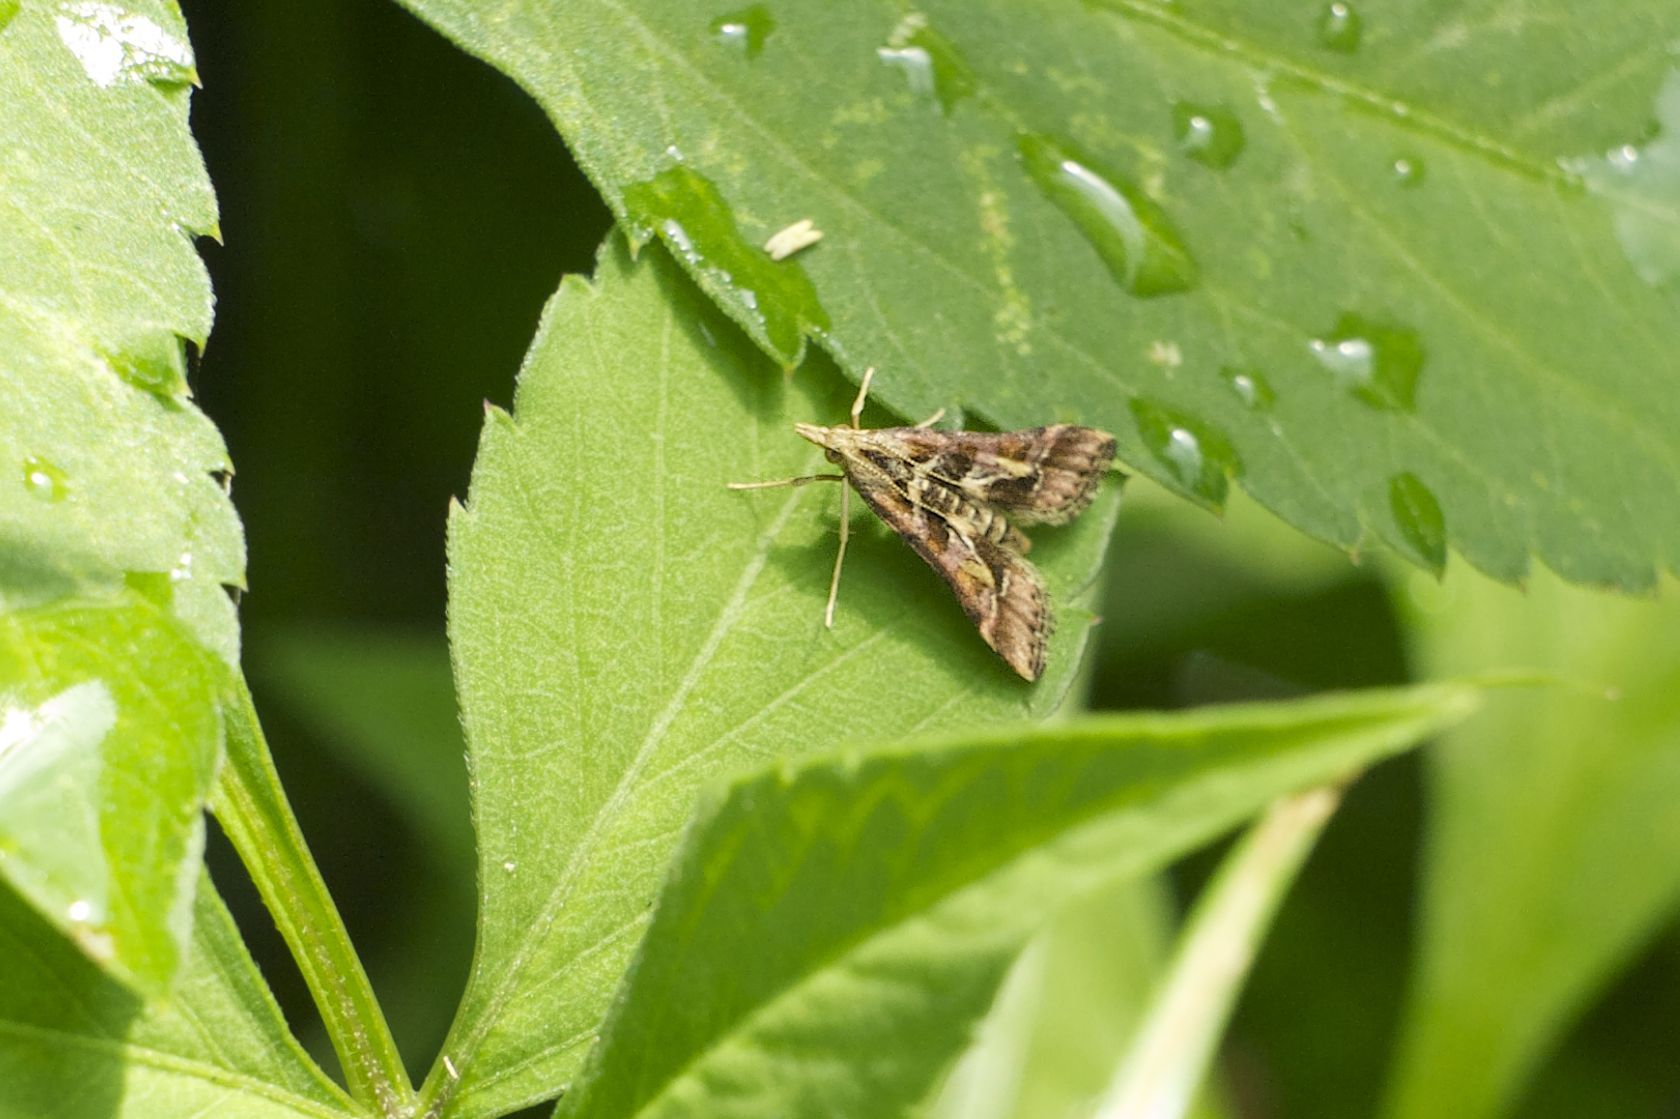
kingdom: Animalia
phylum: Arthropoda
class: Insecta
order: Lepidoptera
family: Crambidae
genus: Diasemia
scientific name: Diasemia accalis
